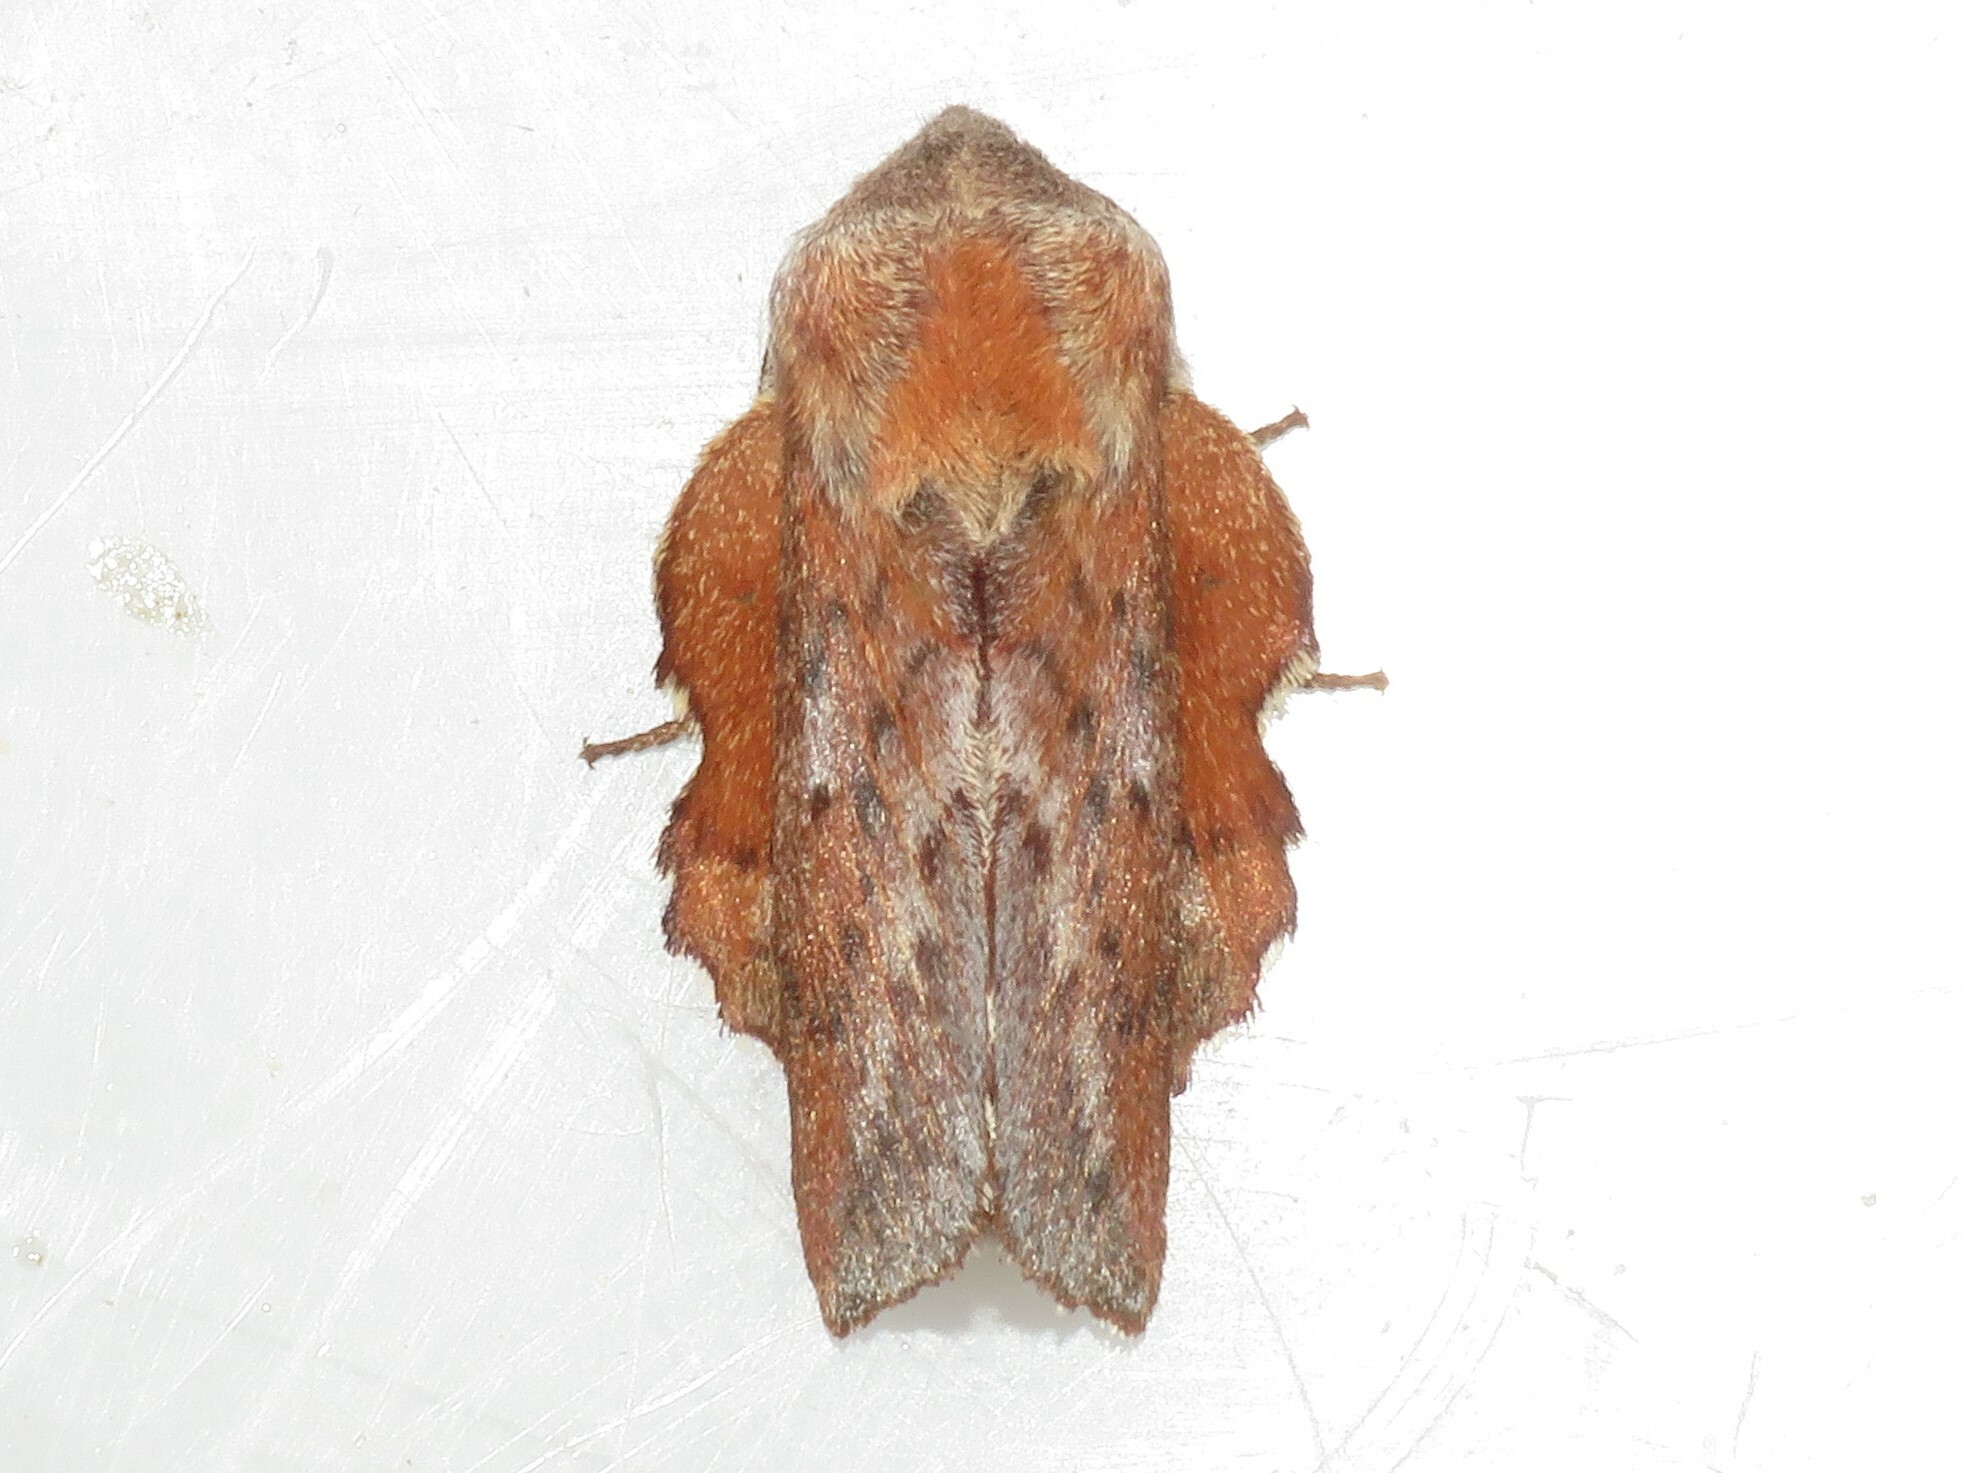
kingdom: Animalia
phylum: Arthropoda
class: Insecta
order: Lepidoptera
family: Lasiocampidae
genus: Phyllodesma
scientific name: Phyllodesma americana
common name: American lappet moth
